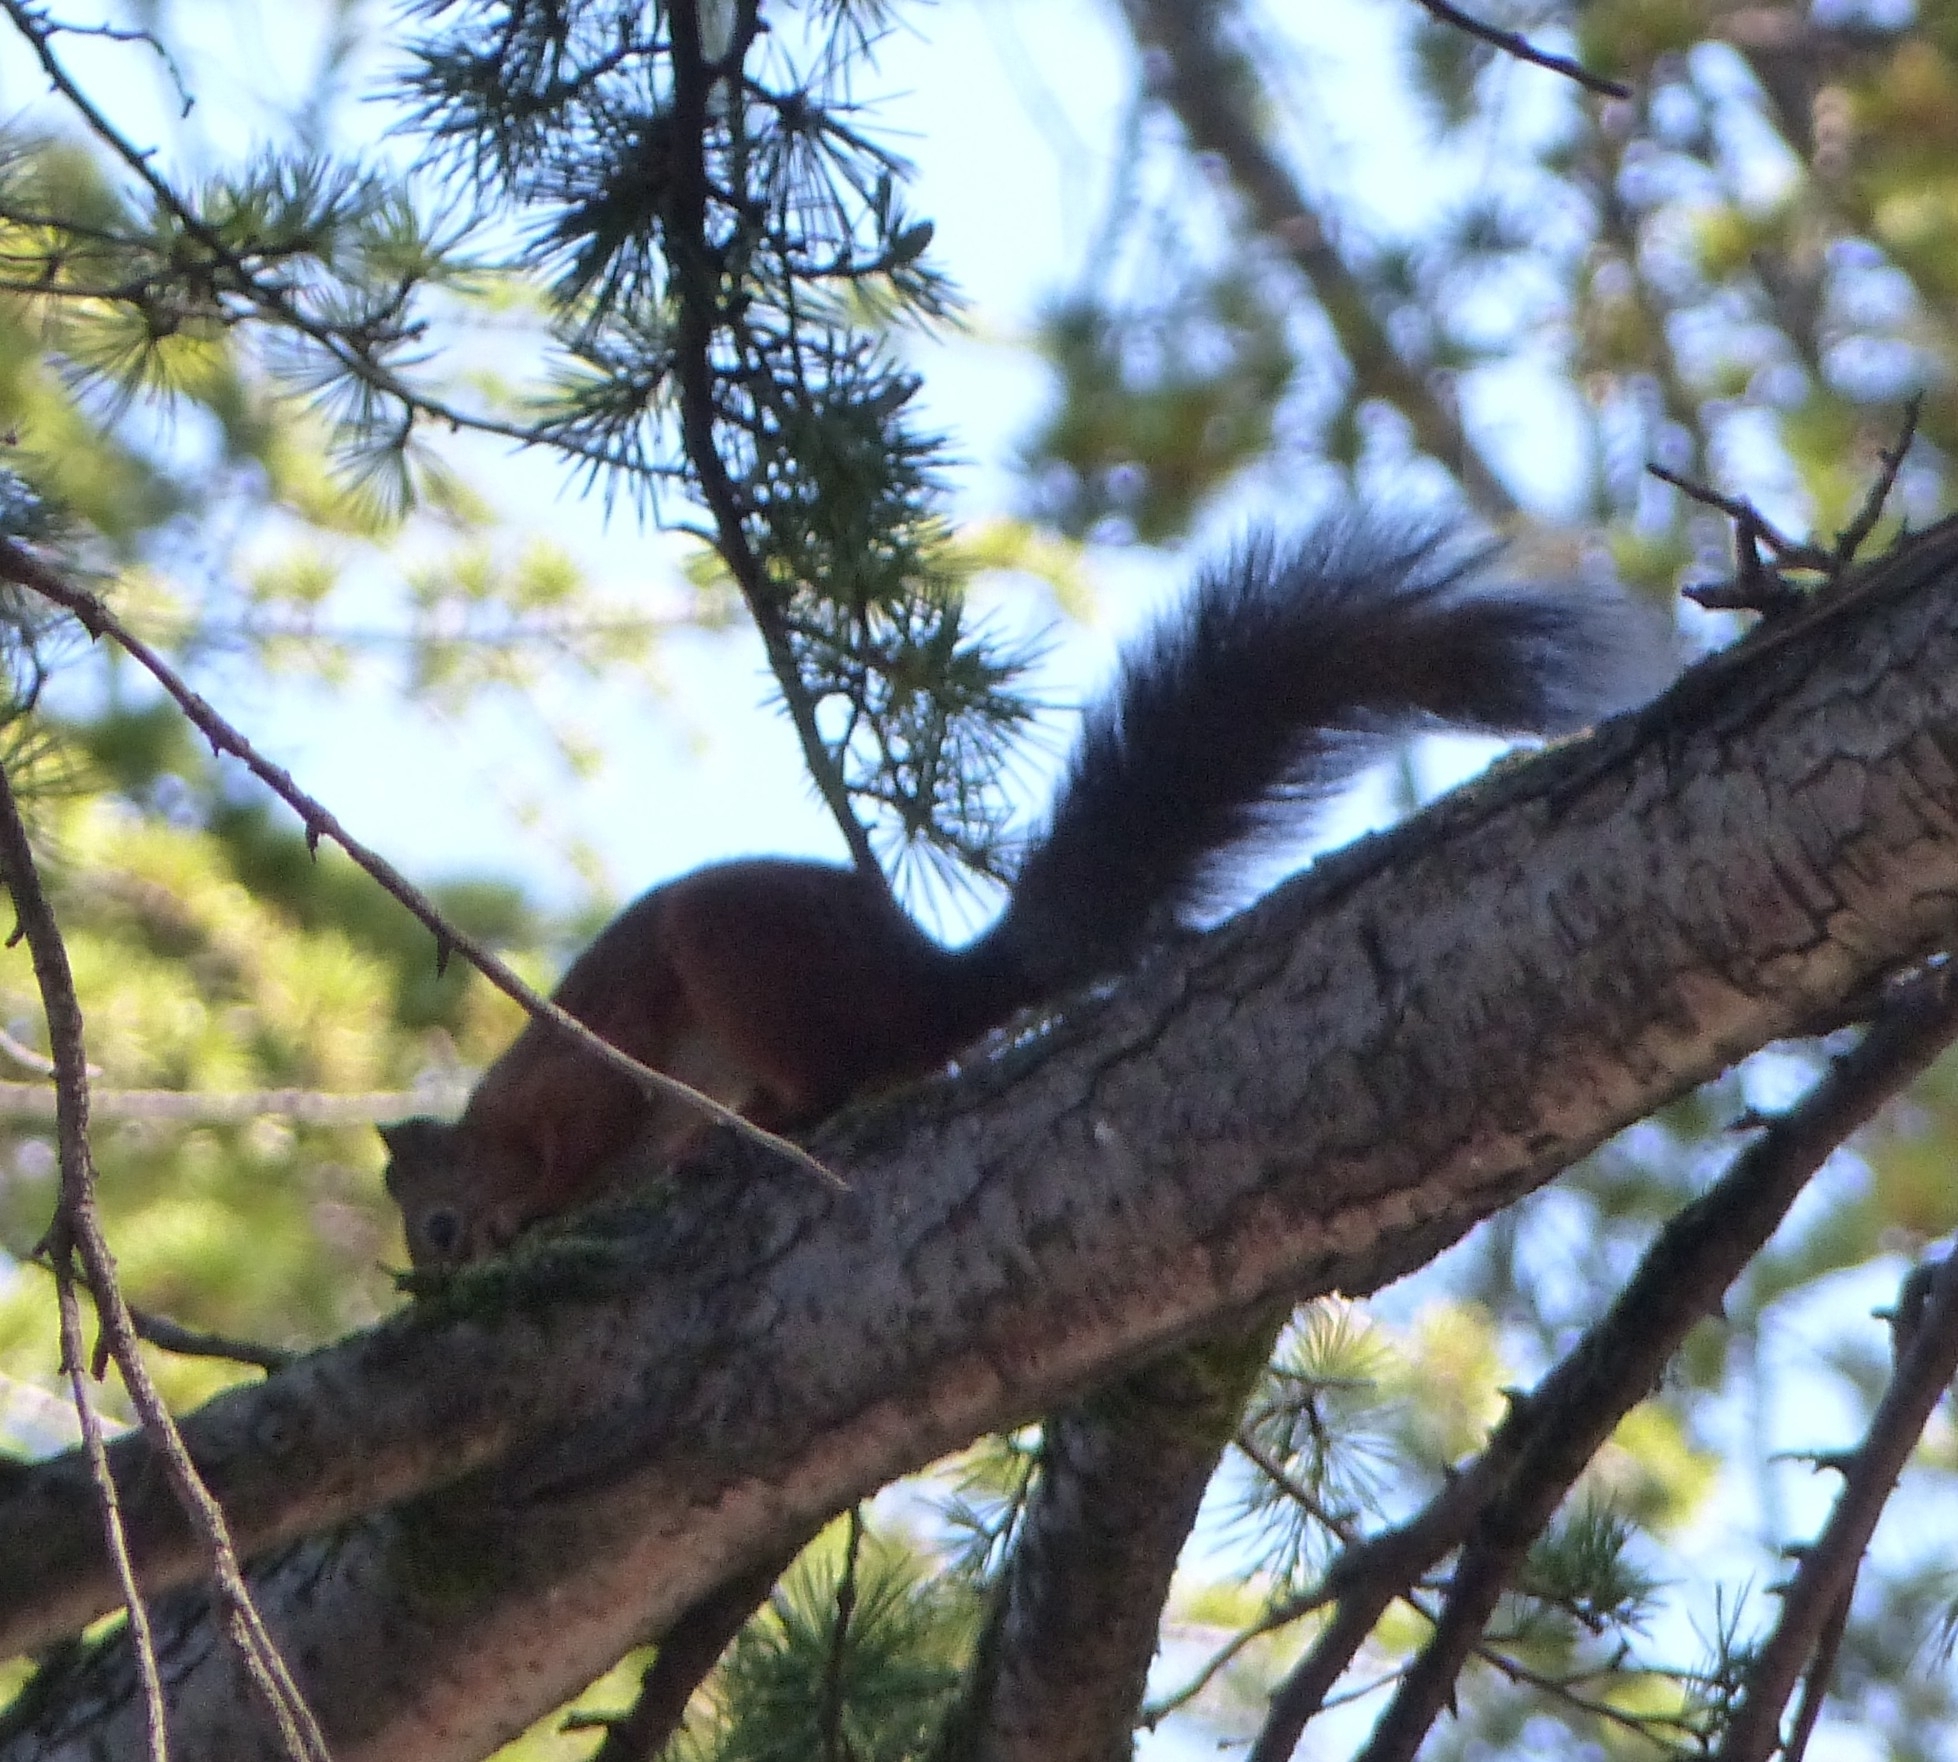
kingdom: Animalia
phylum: Chordata
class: Mammalia
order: Rodentia
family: Sciuridae
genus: Sciurus
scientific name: Sciurus vulgaris
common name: Eurasian red squirrel
